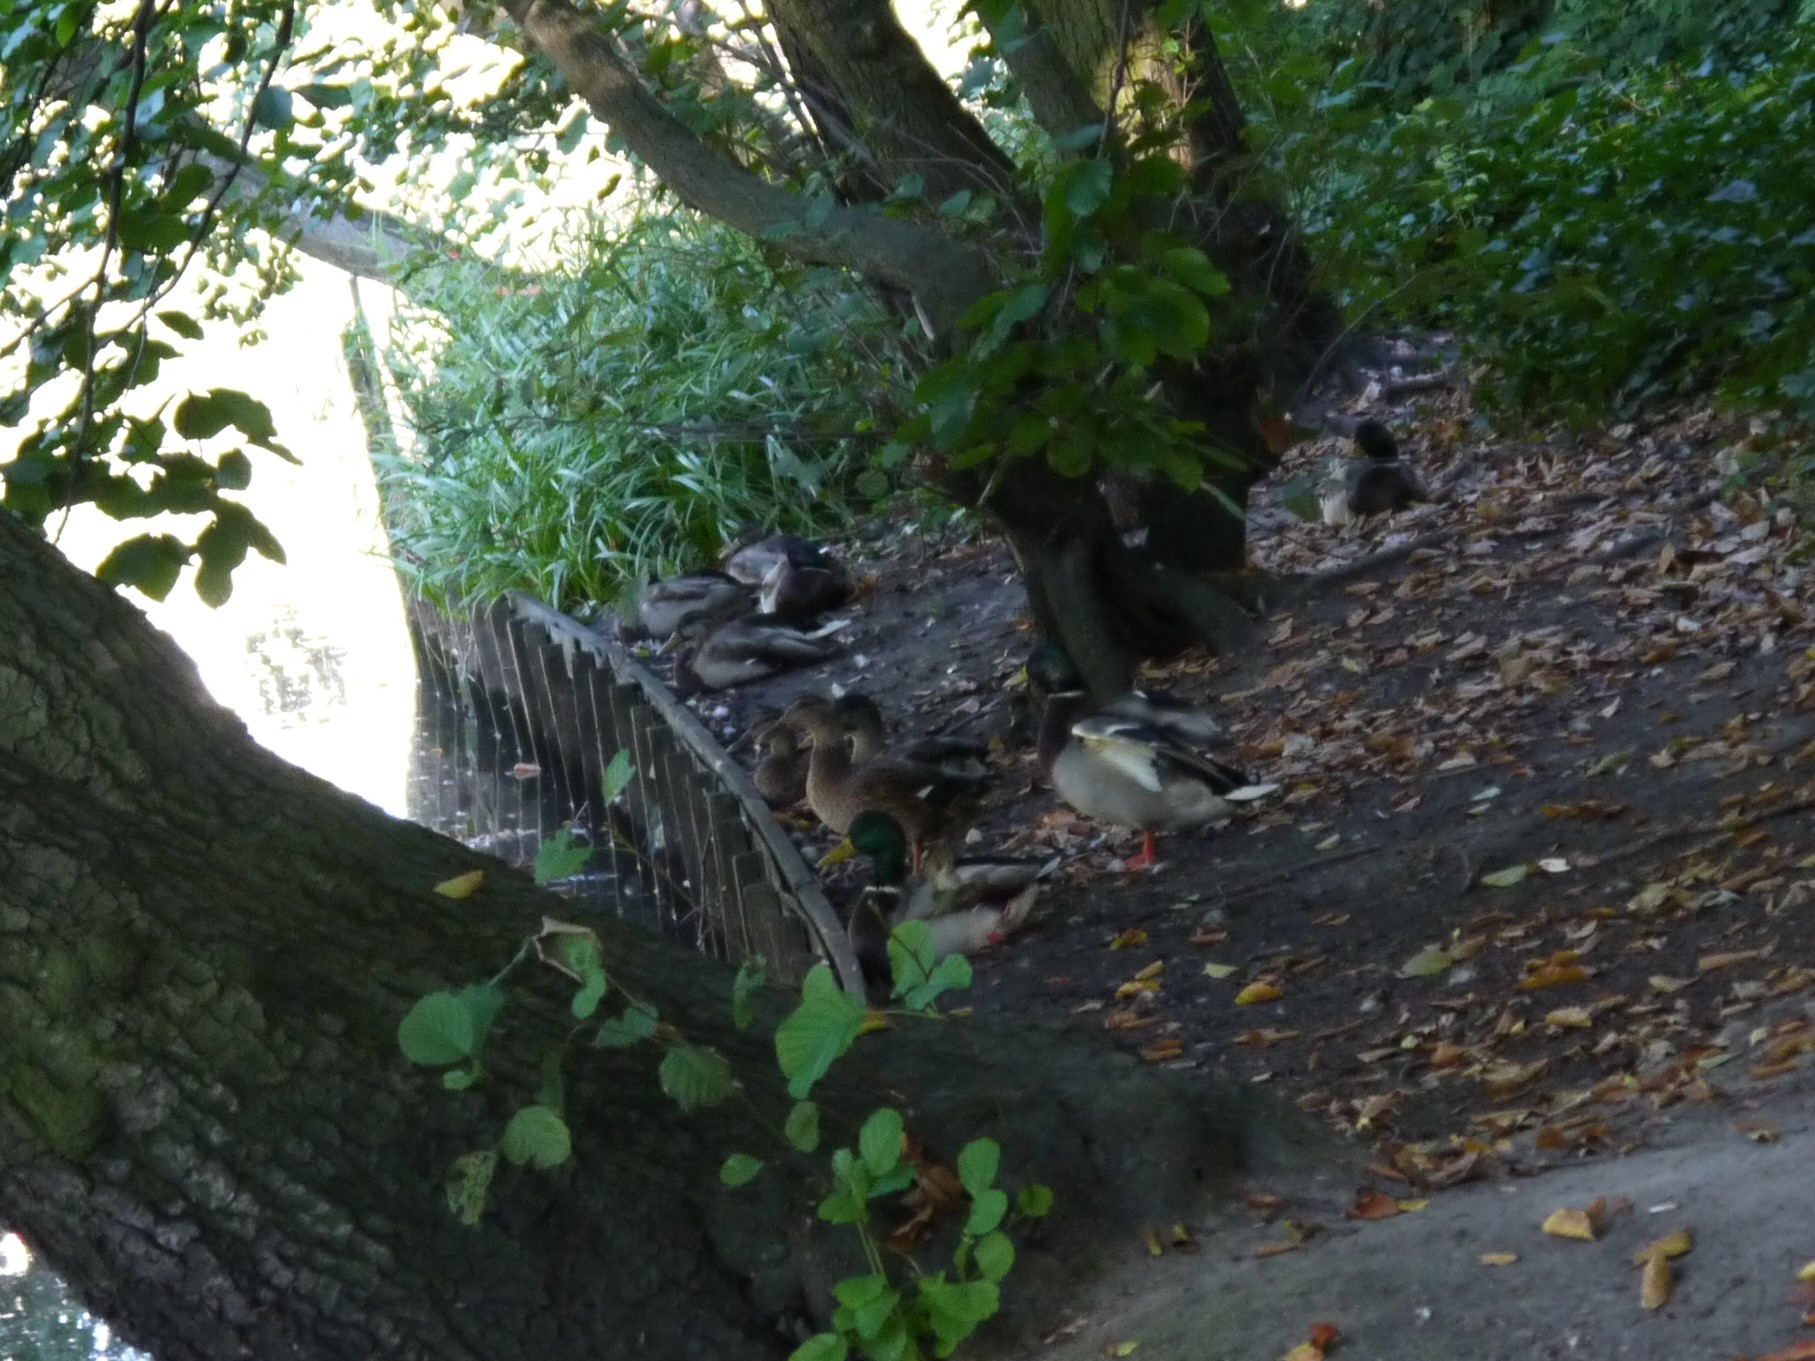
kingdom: Animalia
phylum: Chordata
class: Aves
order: Anseriformes
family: Anatidae
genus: Anas
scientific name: Anas platyrhynchos
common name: Mallard
